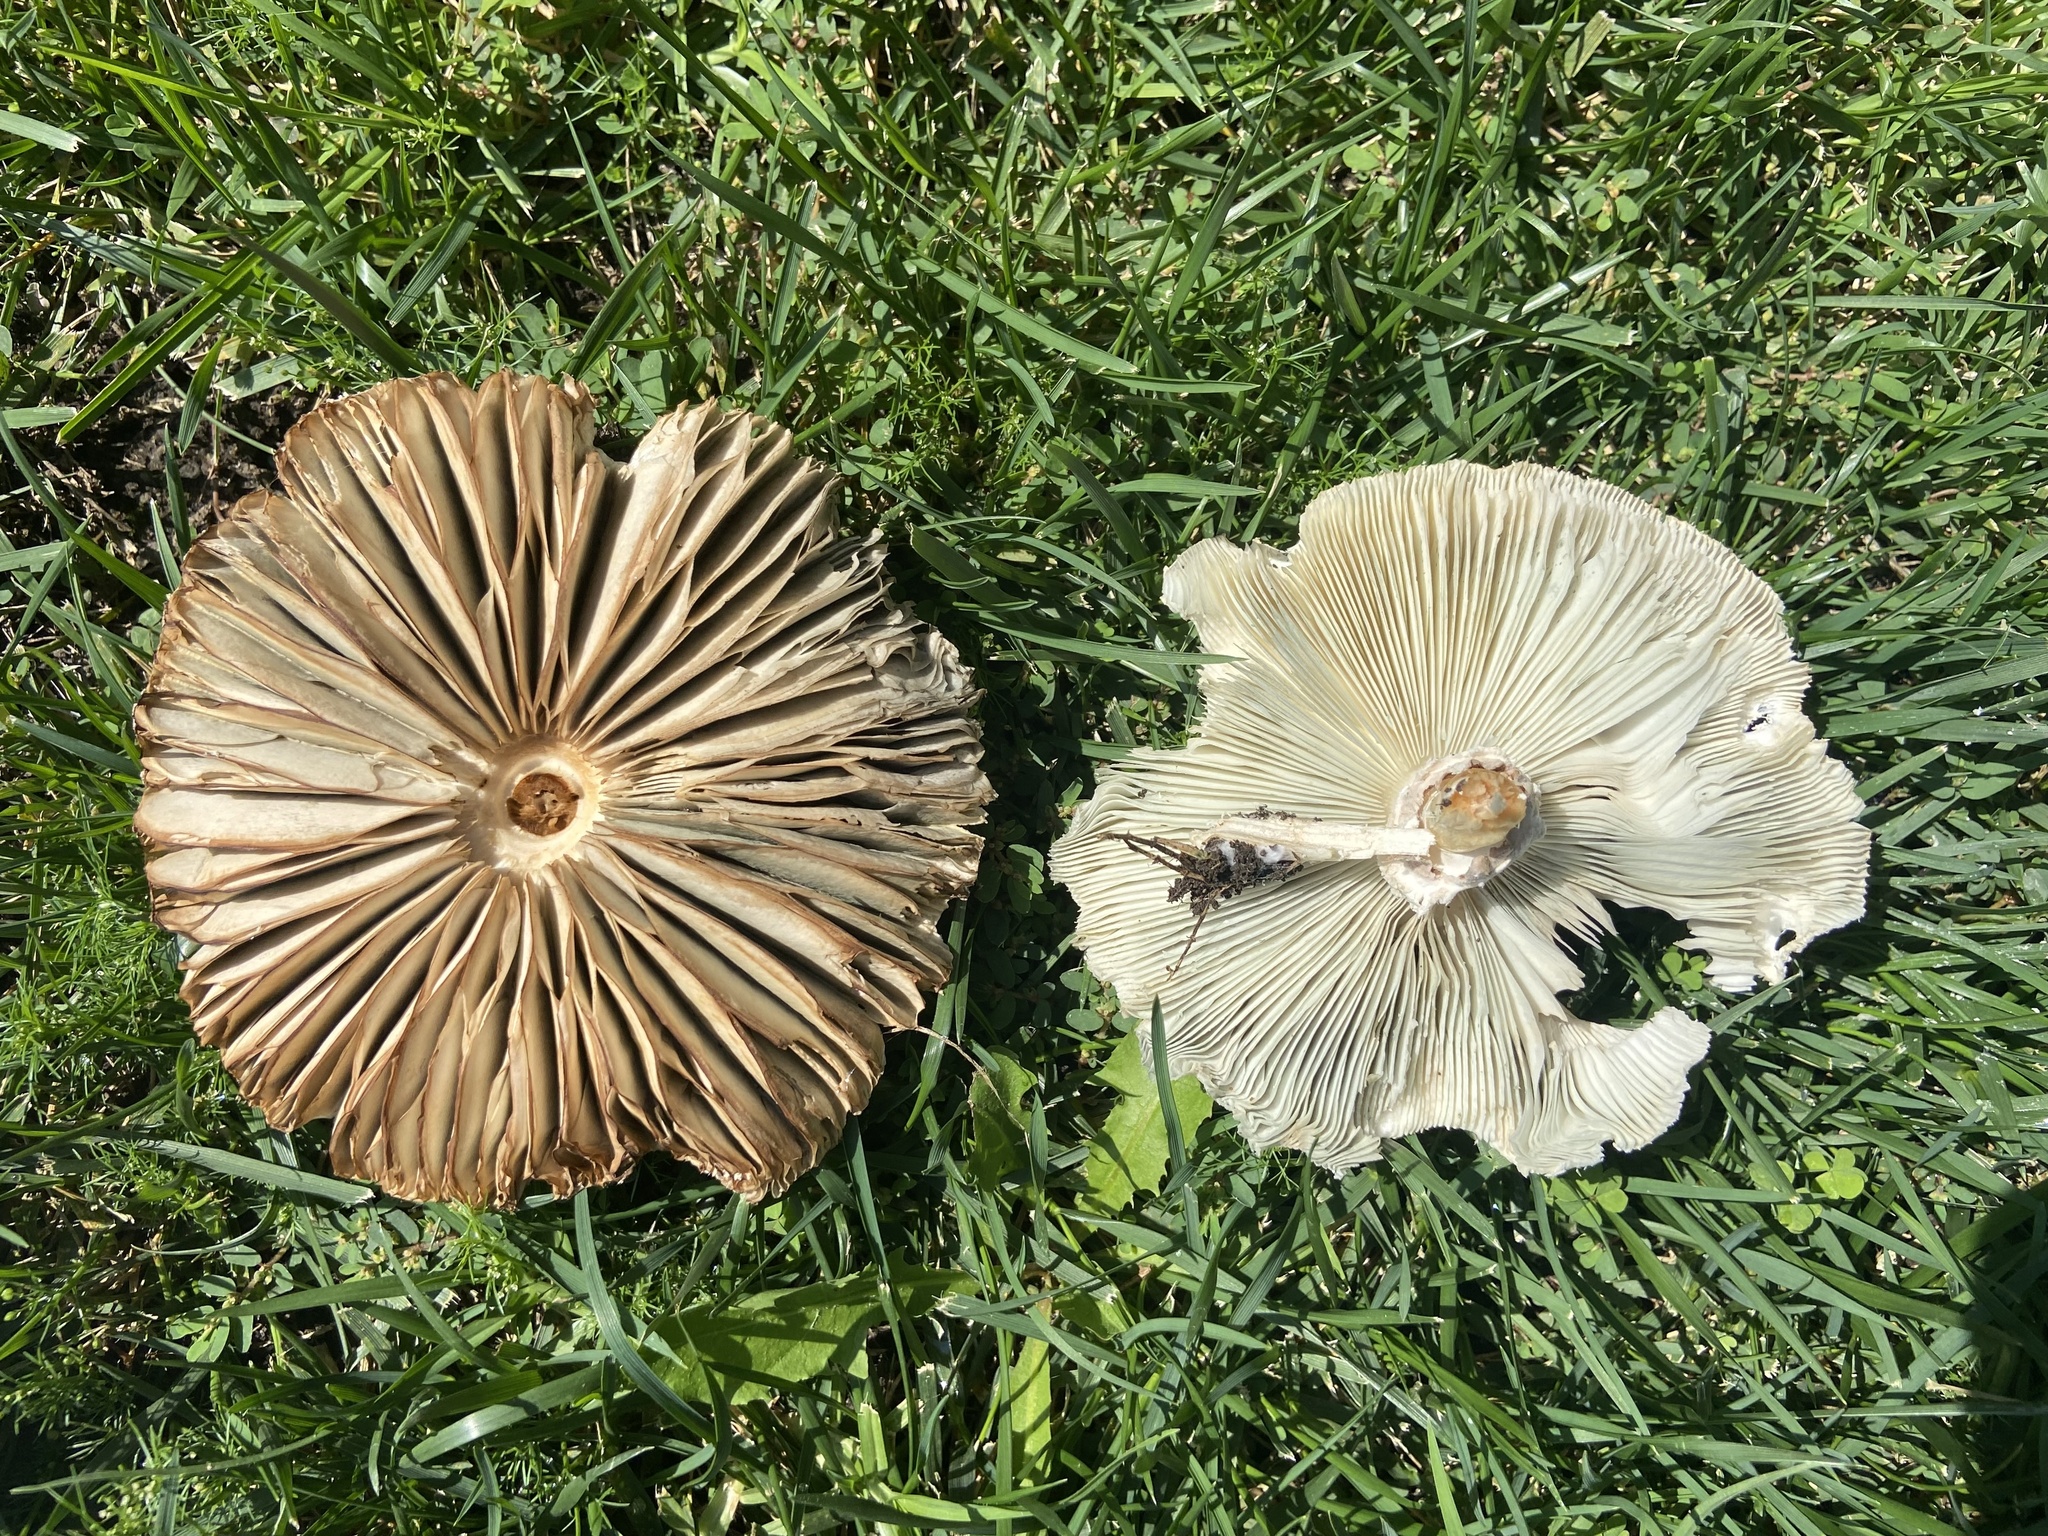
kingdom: Fungi
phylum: Basidiomycota
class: Agaricomycetes
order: Agaricales
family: Agaricaceae
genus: Chlorophyllum
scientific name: Chlorophyllum molybdites
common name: False parasol
